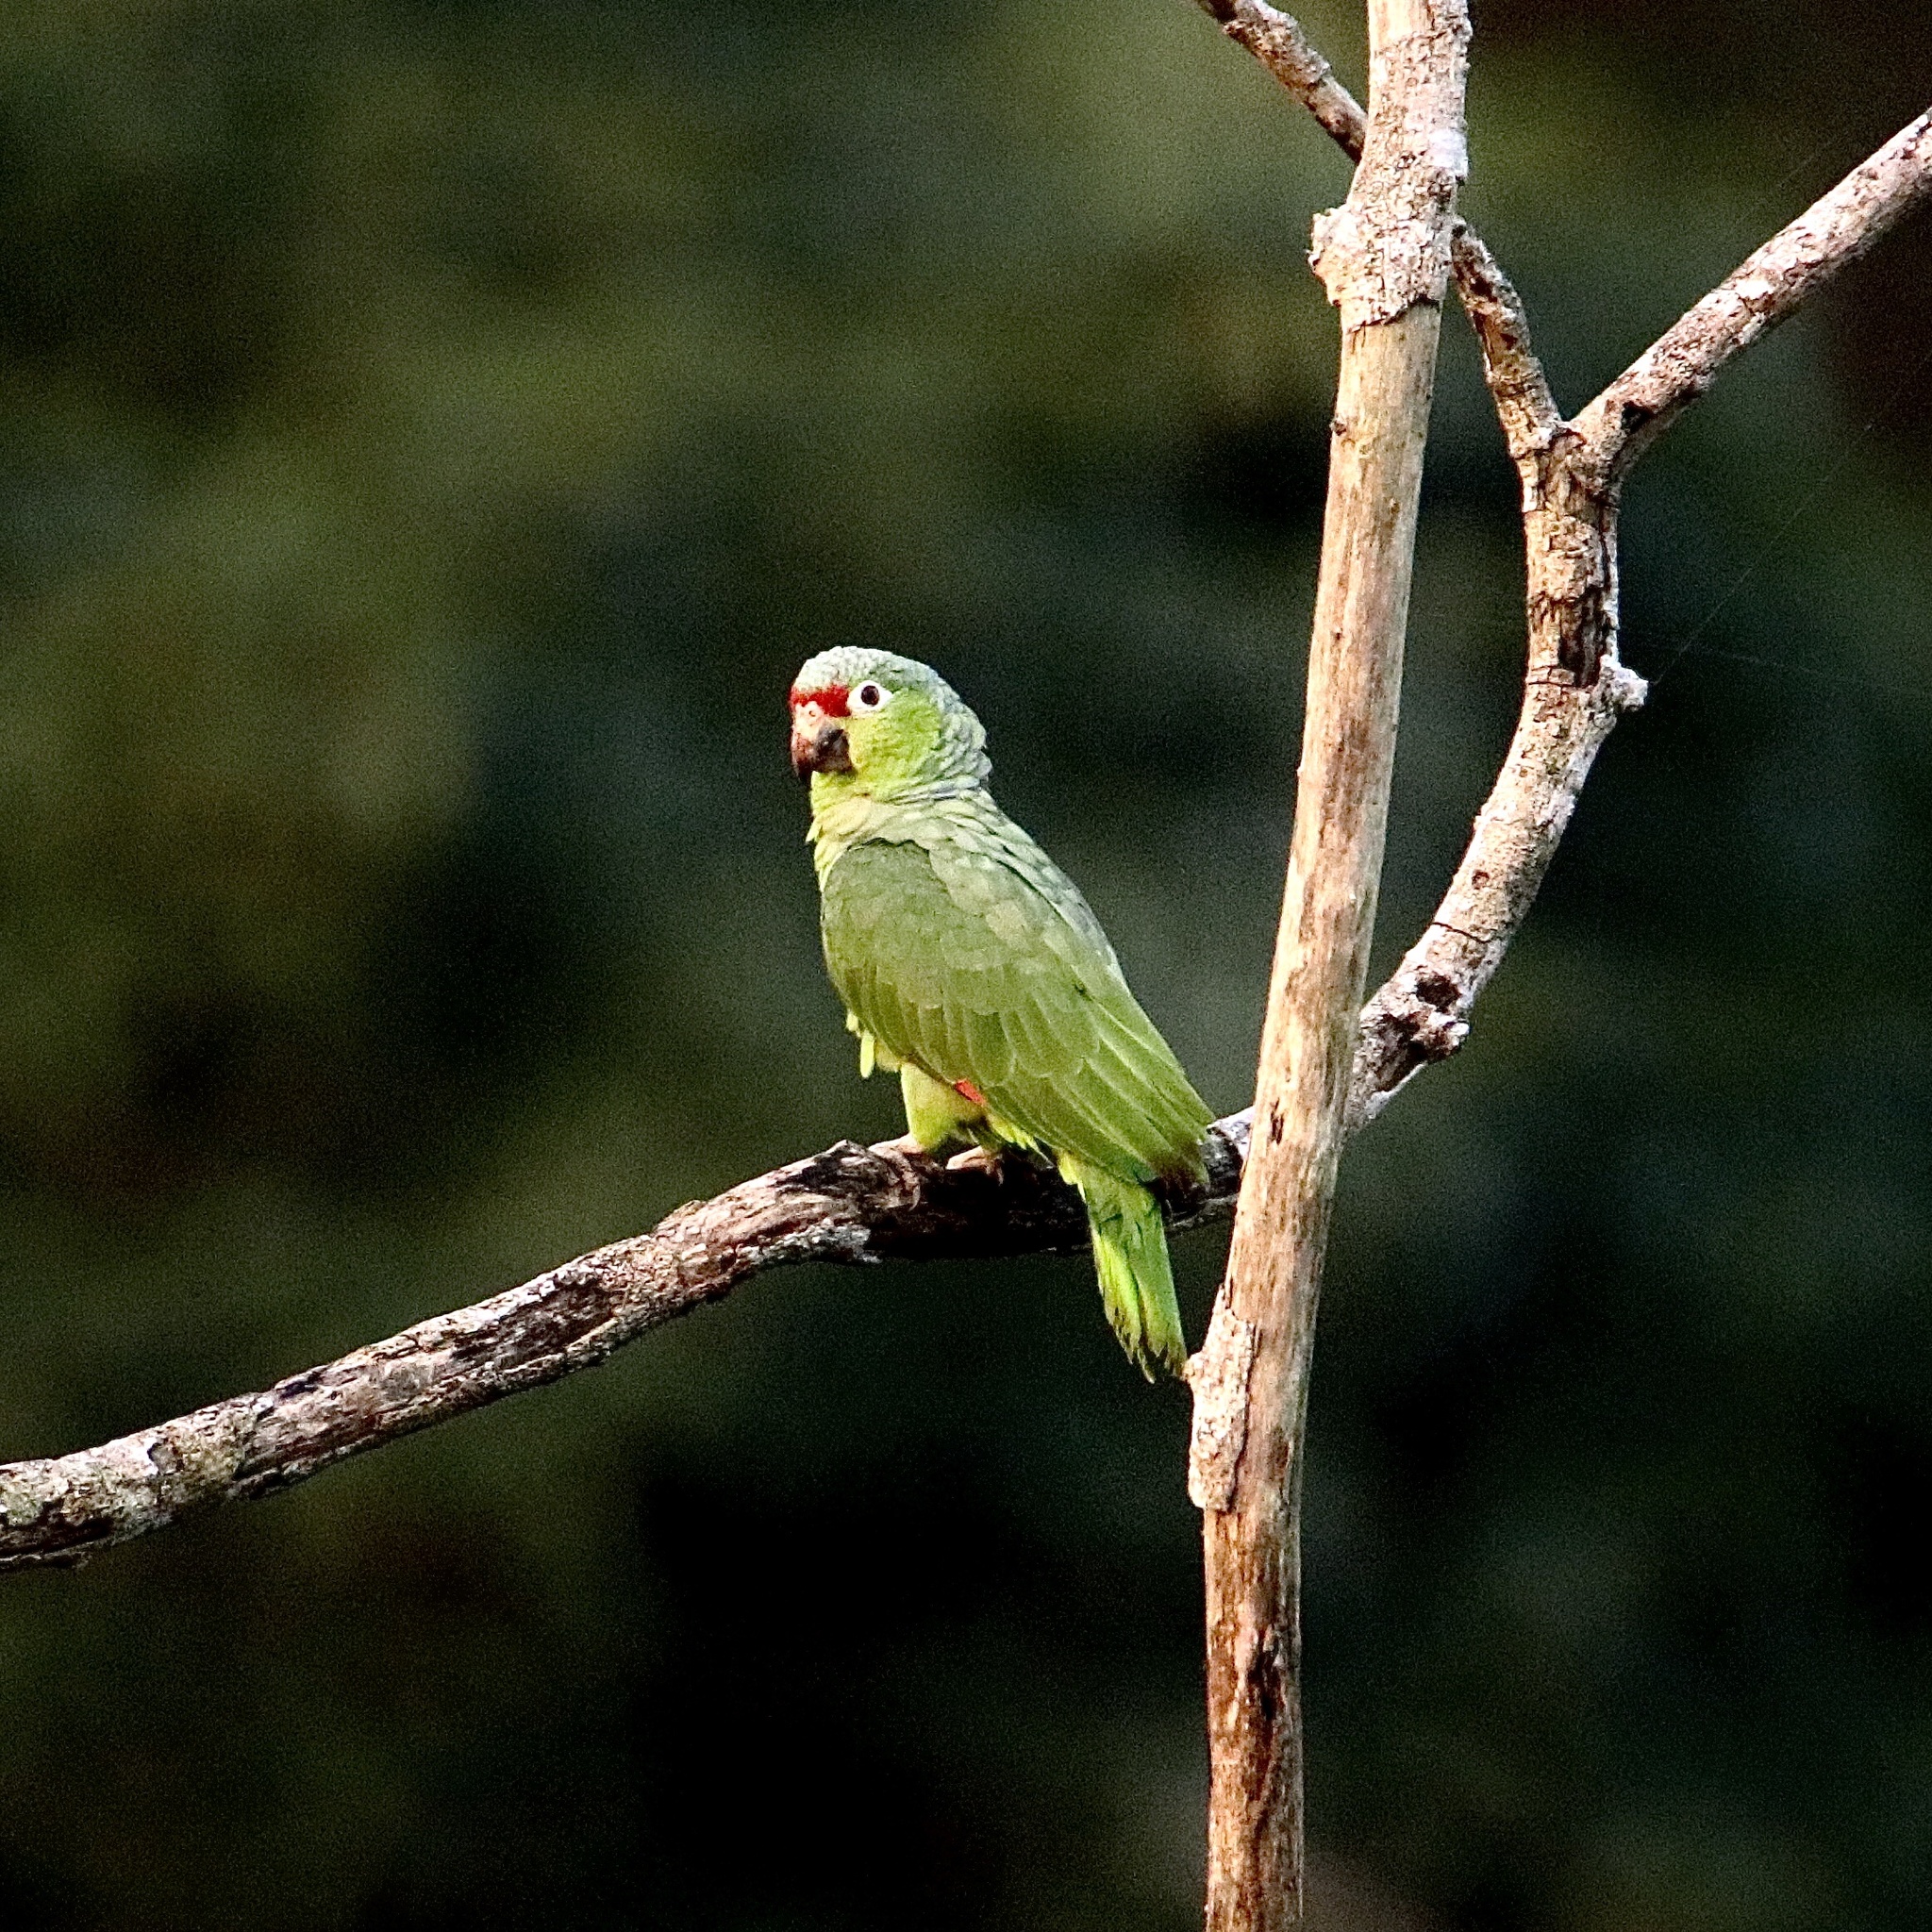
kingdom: Animalia
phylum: Chordata
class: Aves
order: Psittaciformes
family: Psittacidae
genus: Amazona
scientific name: Amazona autumnalis
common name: Red-lored amazon
